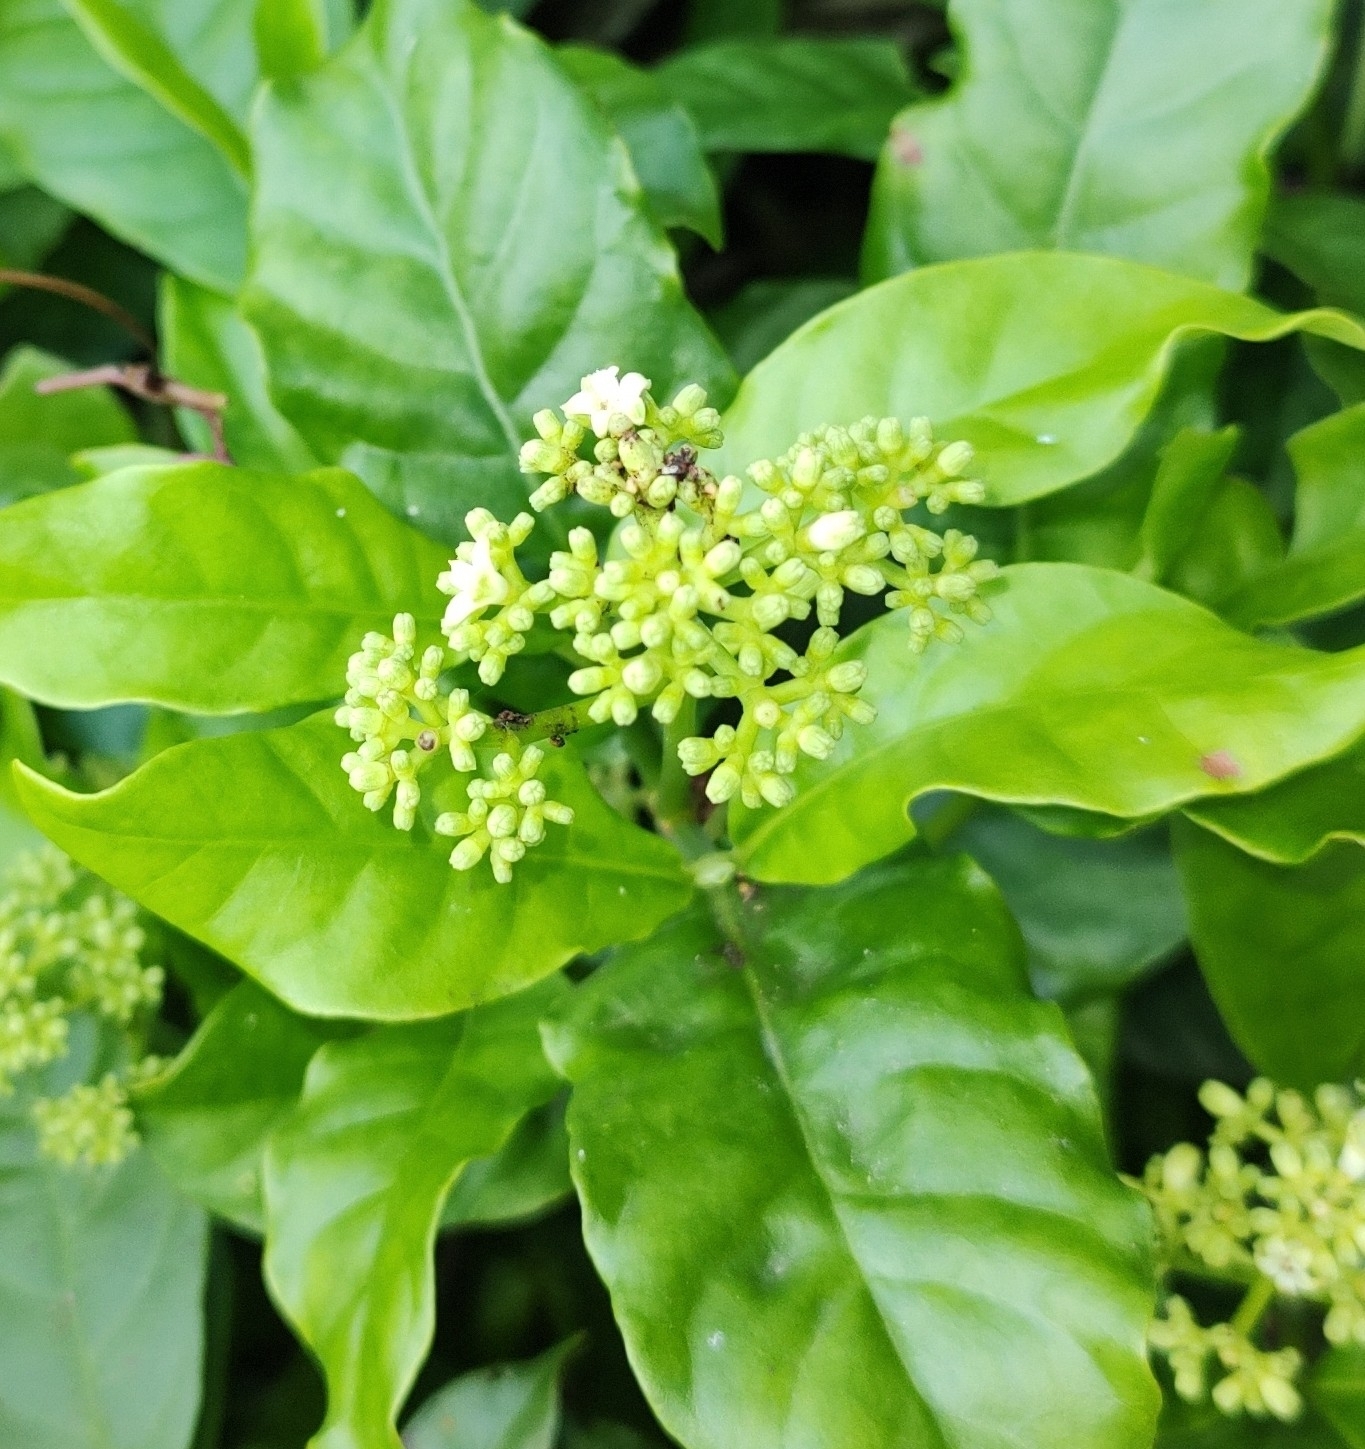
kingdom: Plantae
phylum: Tracheophyta
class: Magnoliopsida
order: Gentianales
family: Rubiaceae
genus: Psychotria
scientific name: Psychotria carthagenensis
